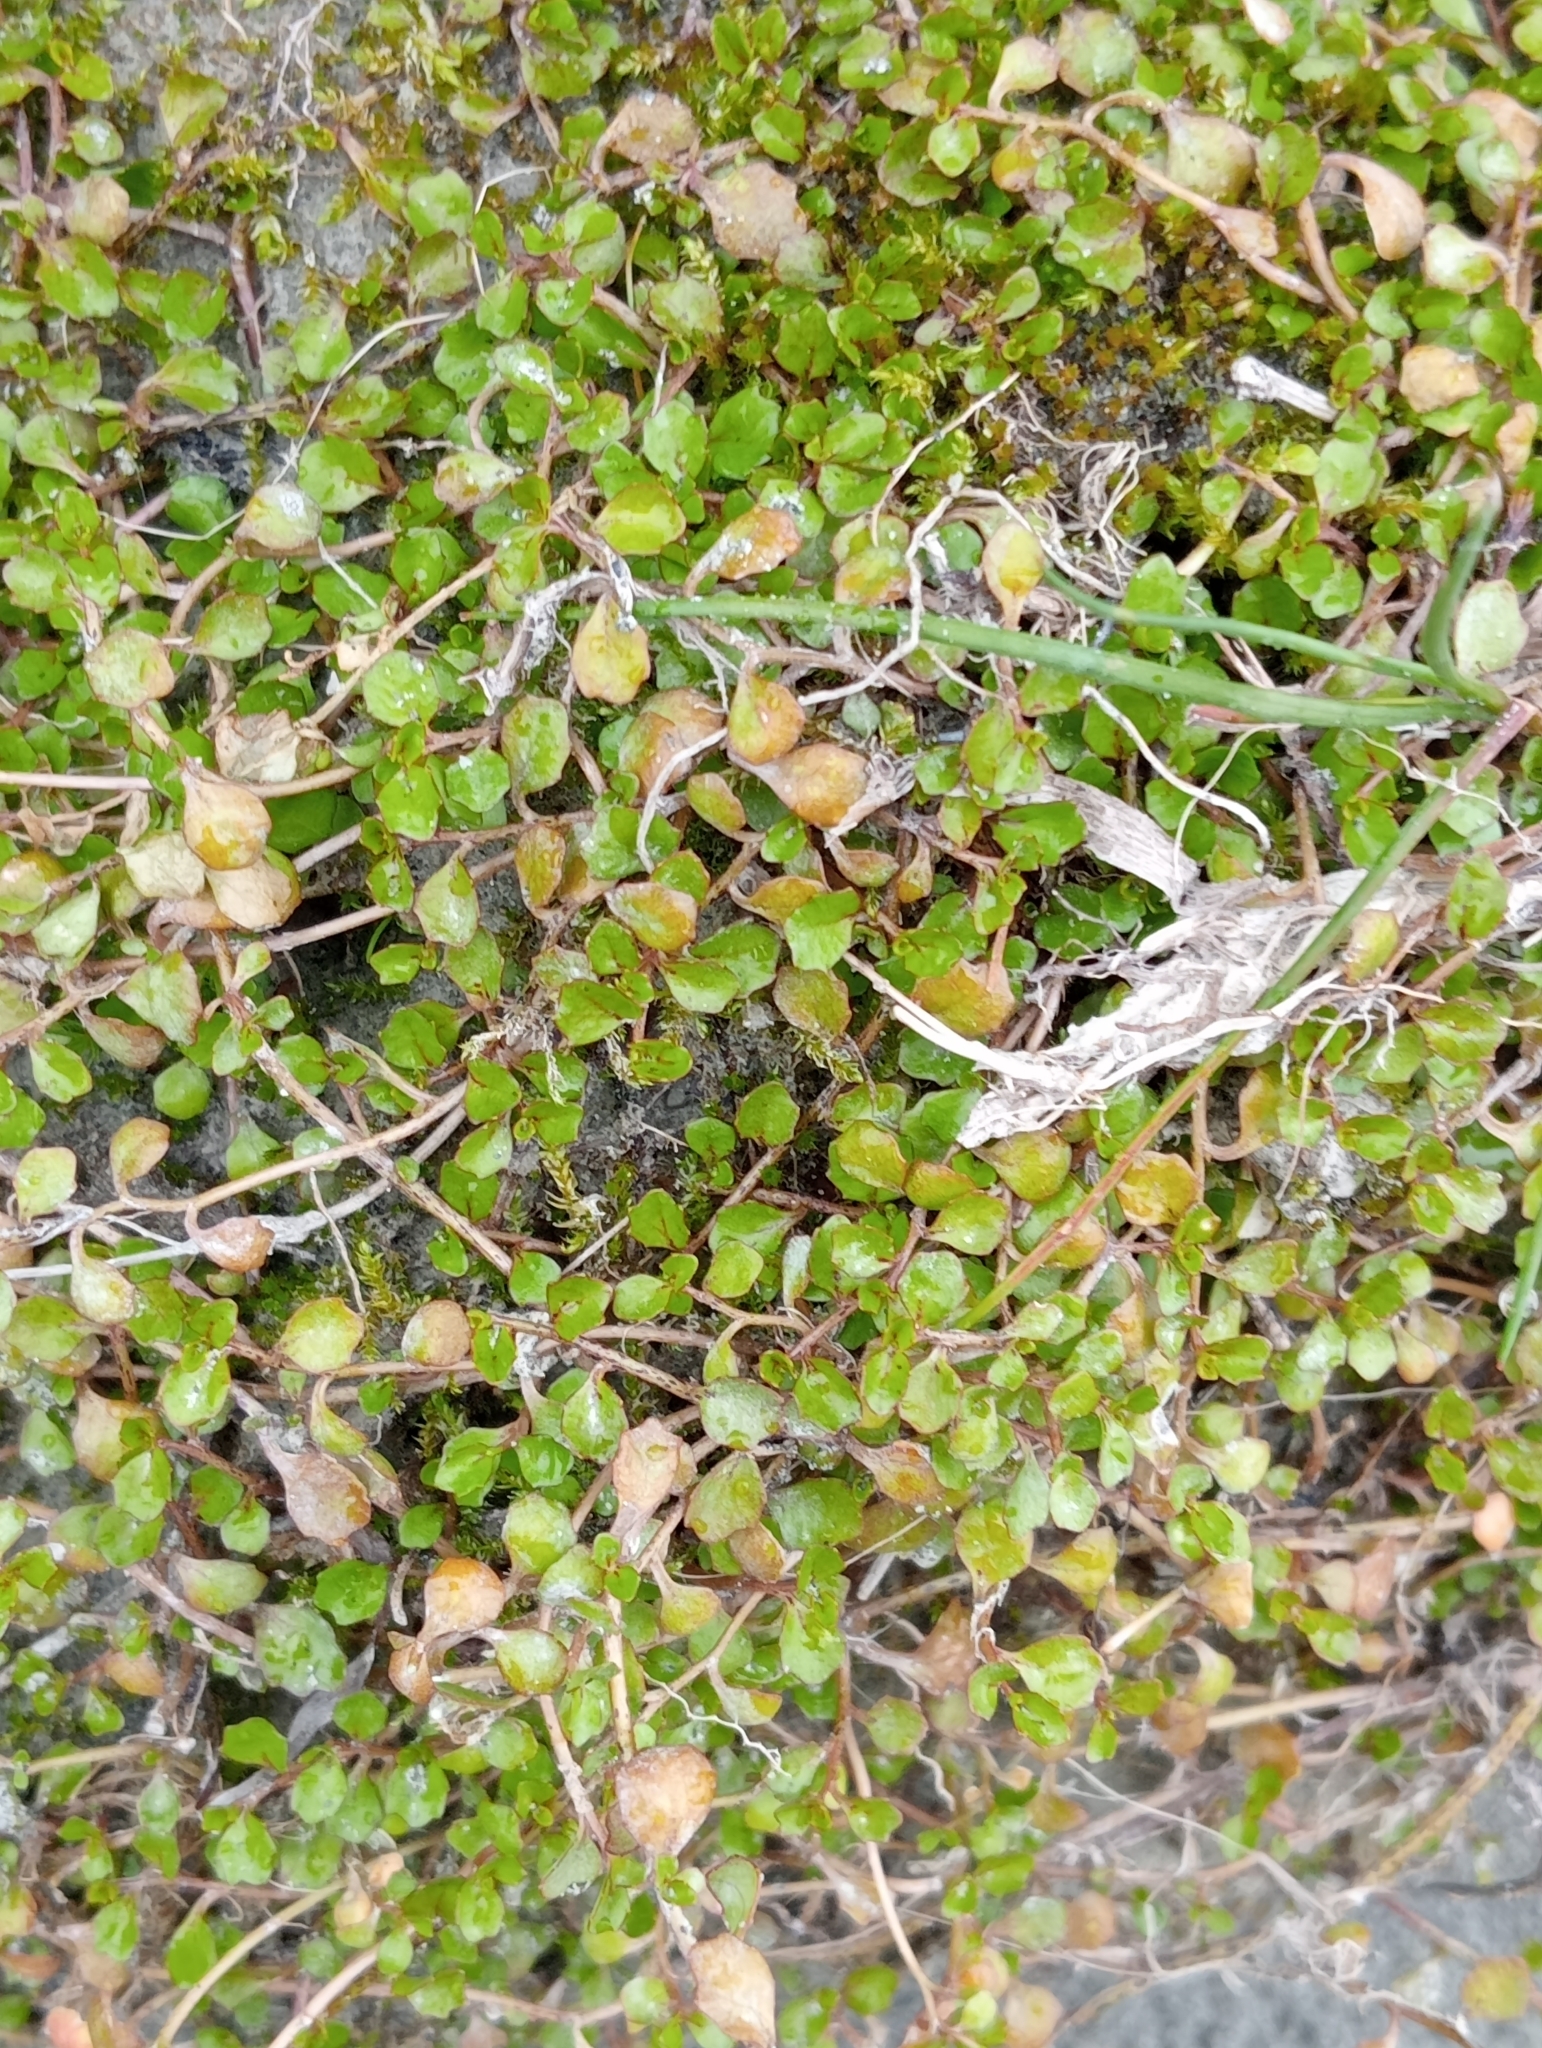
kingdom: Plantae
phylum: Tracheophyta
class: Magnoliopsida
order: Asterales
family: Campanulaceae
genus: Lobelia
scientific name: Lobelia angulata
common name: Lawn lobelia
